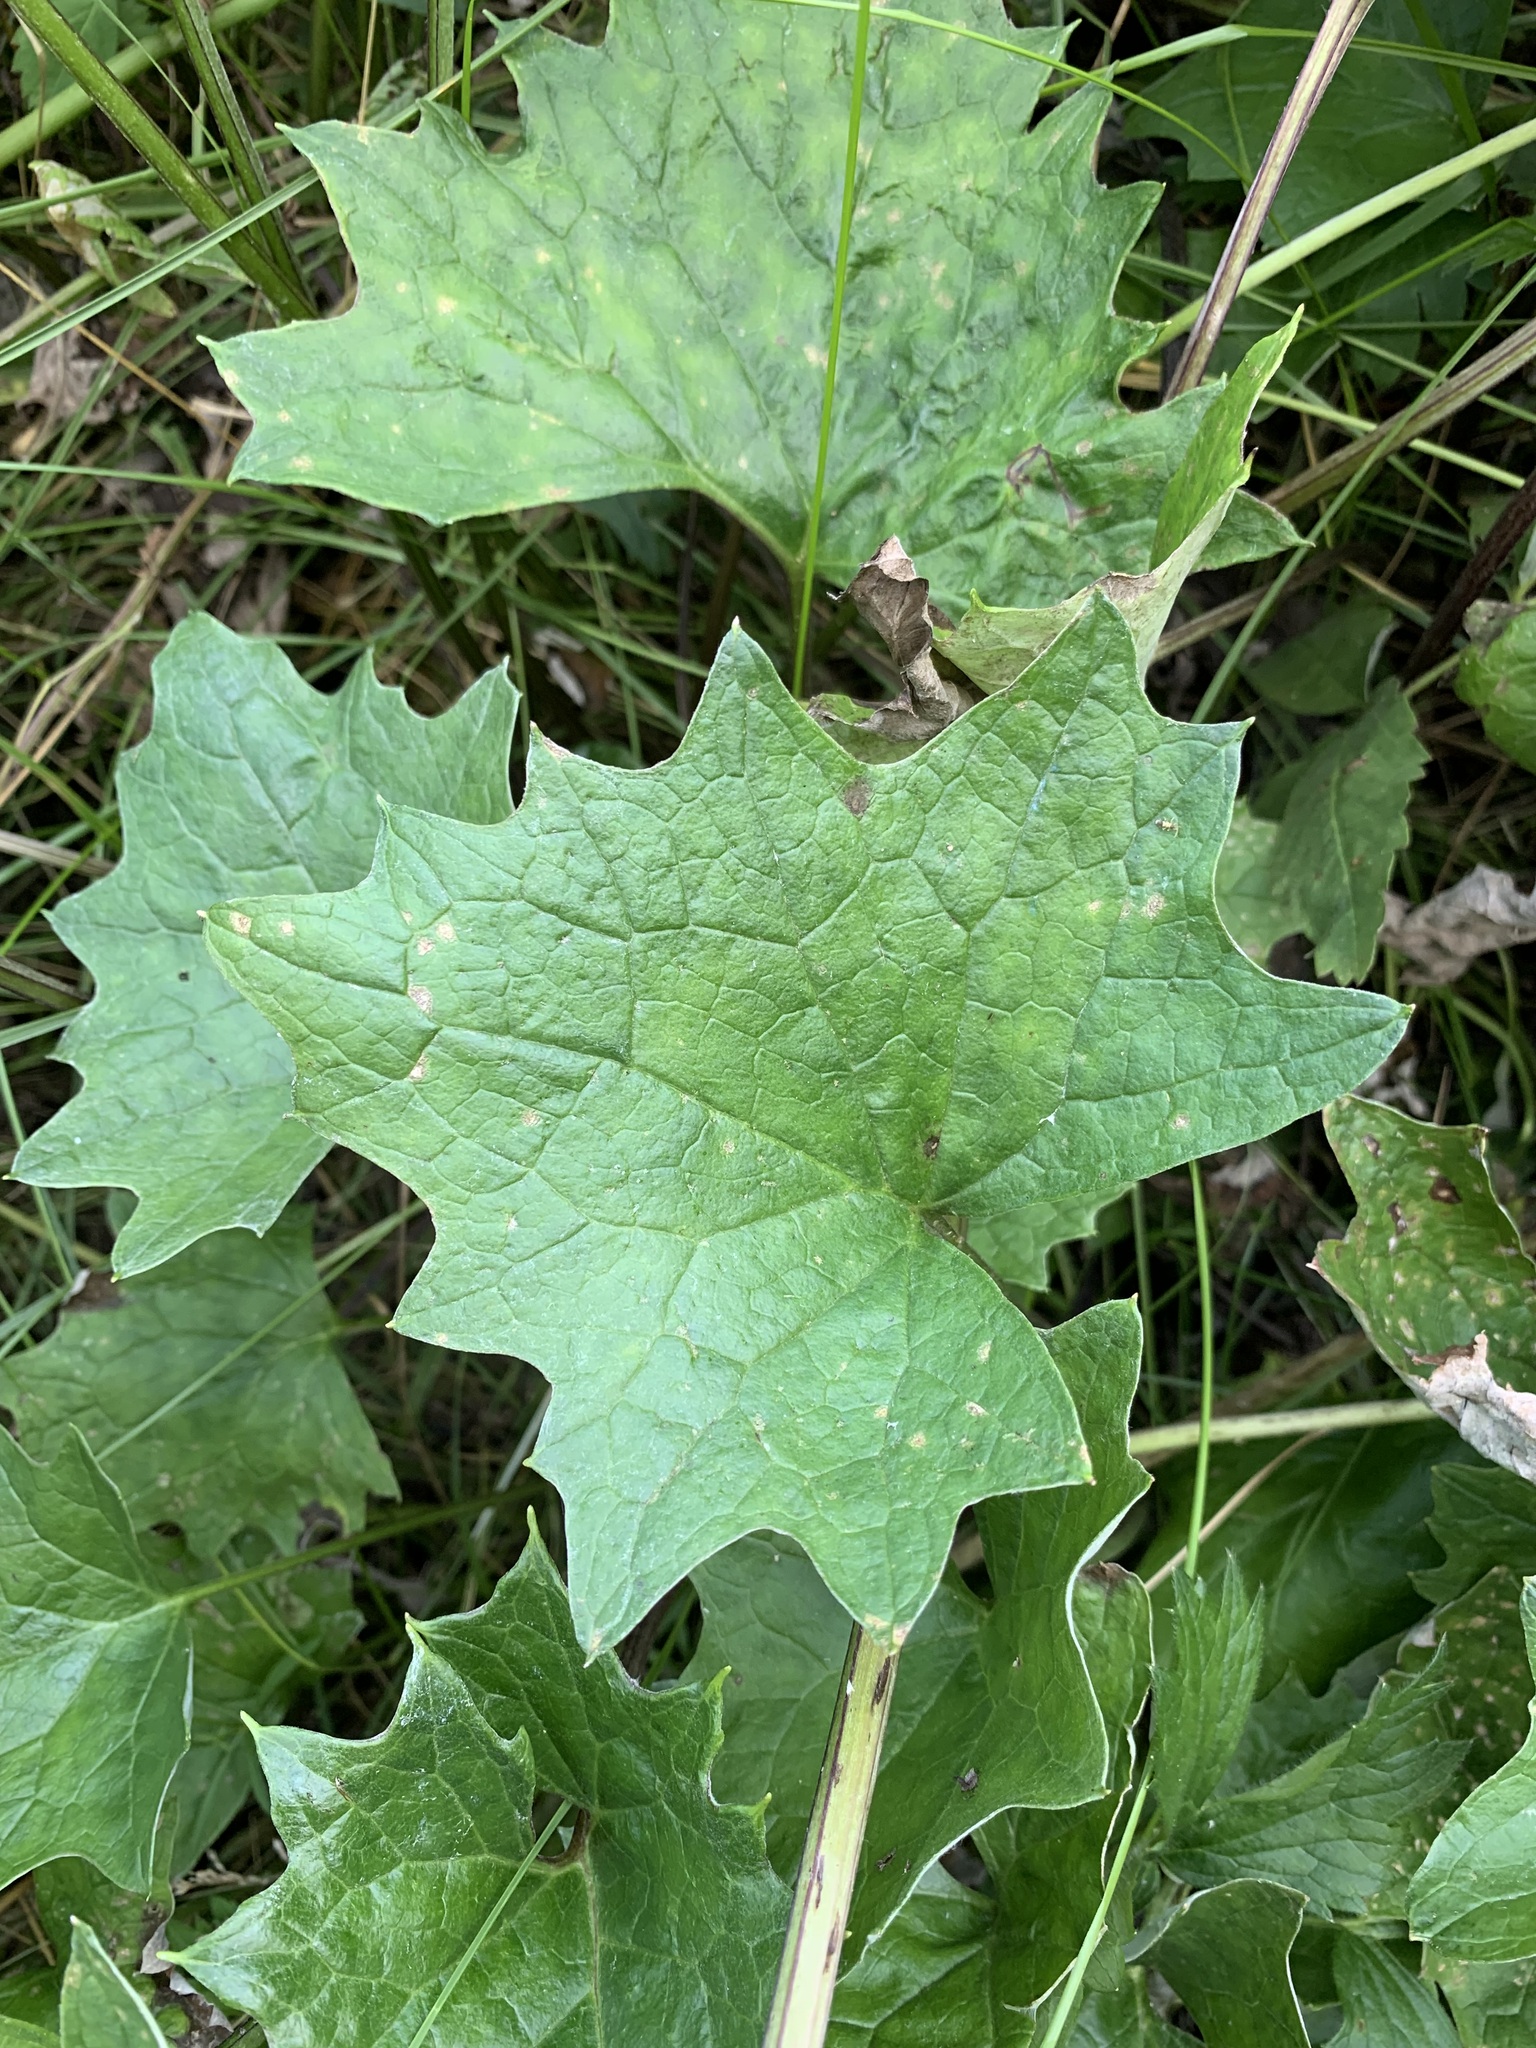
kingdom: Plantae
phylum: Tracheophyta
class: Magnoliopsida
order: Asterales
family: Asteraceae
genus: Petasites
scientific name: Petasites frigidus
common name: Arctic butterbur
